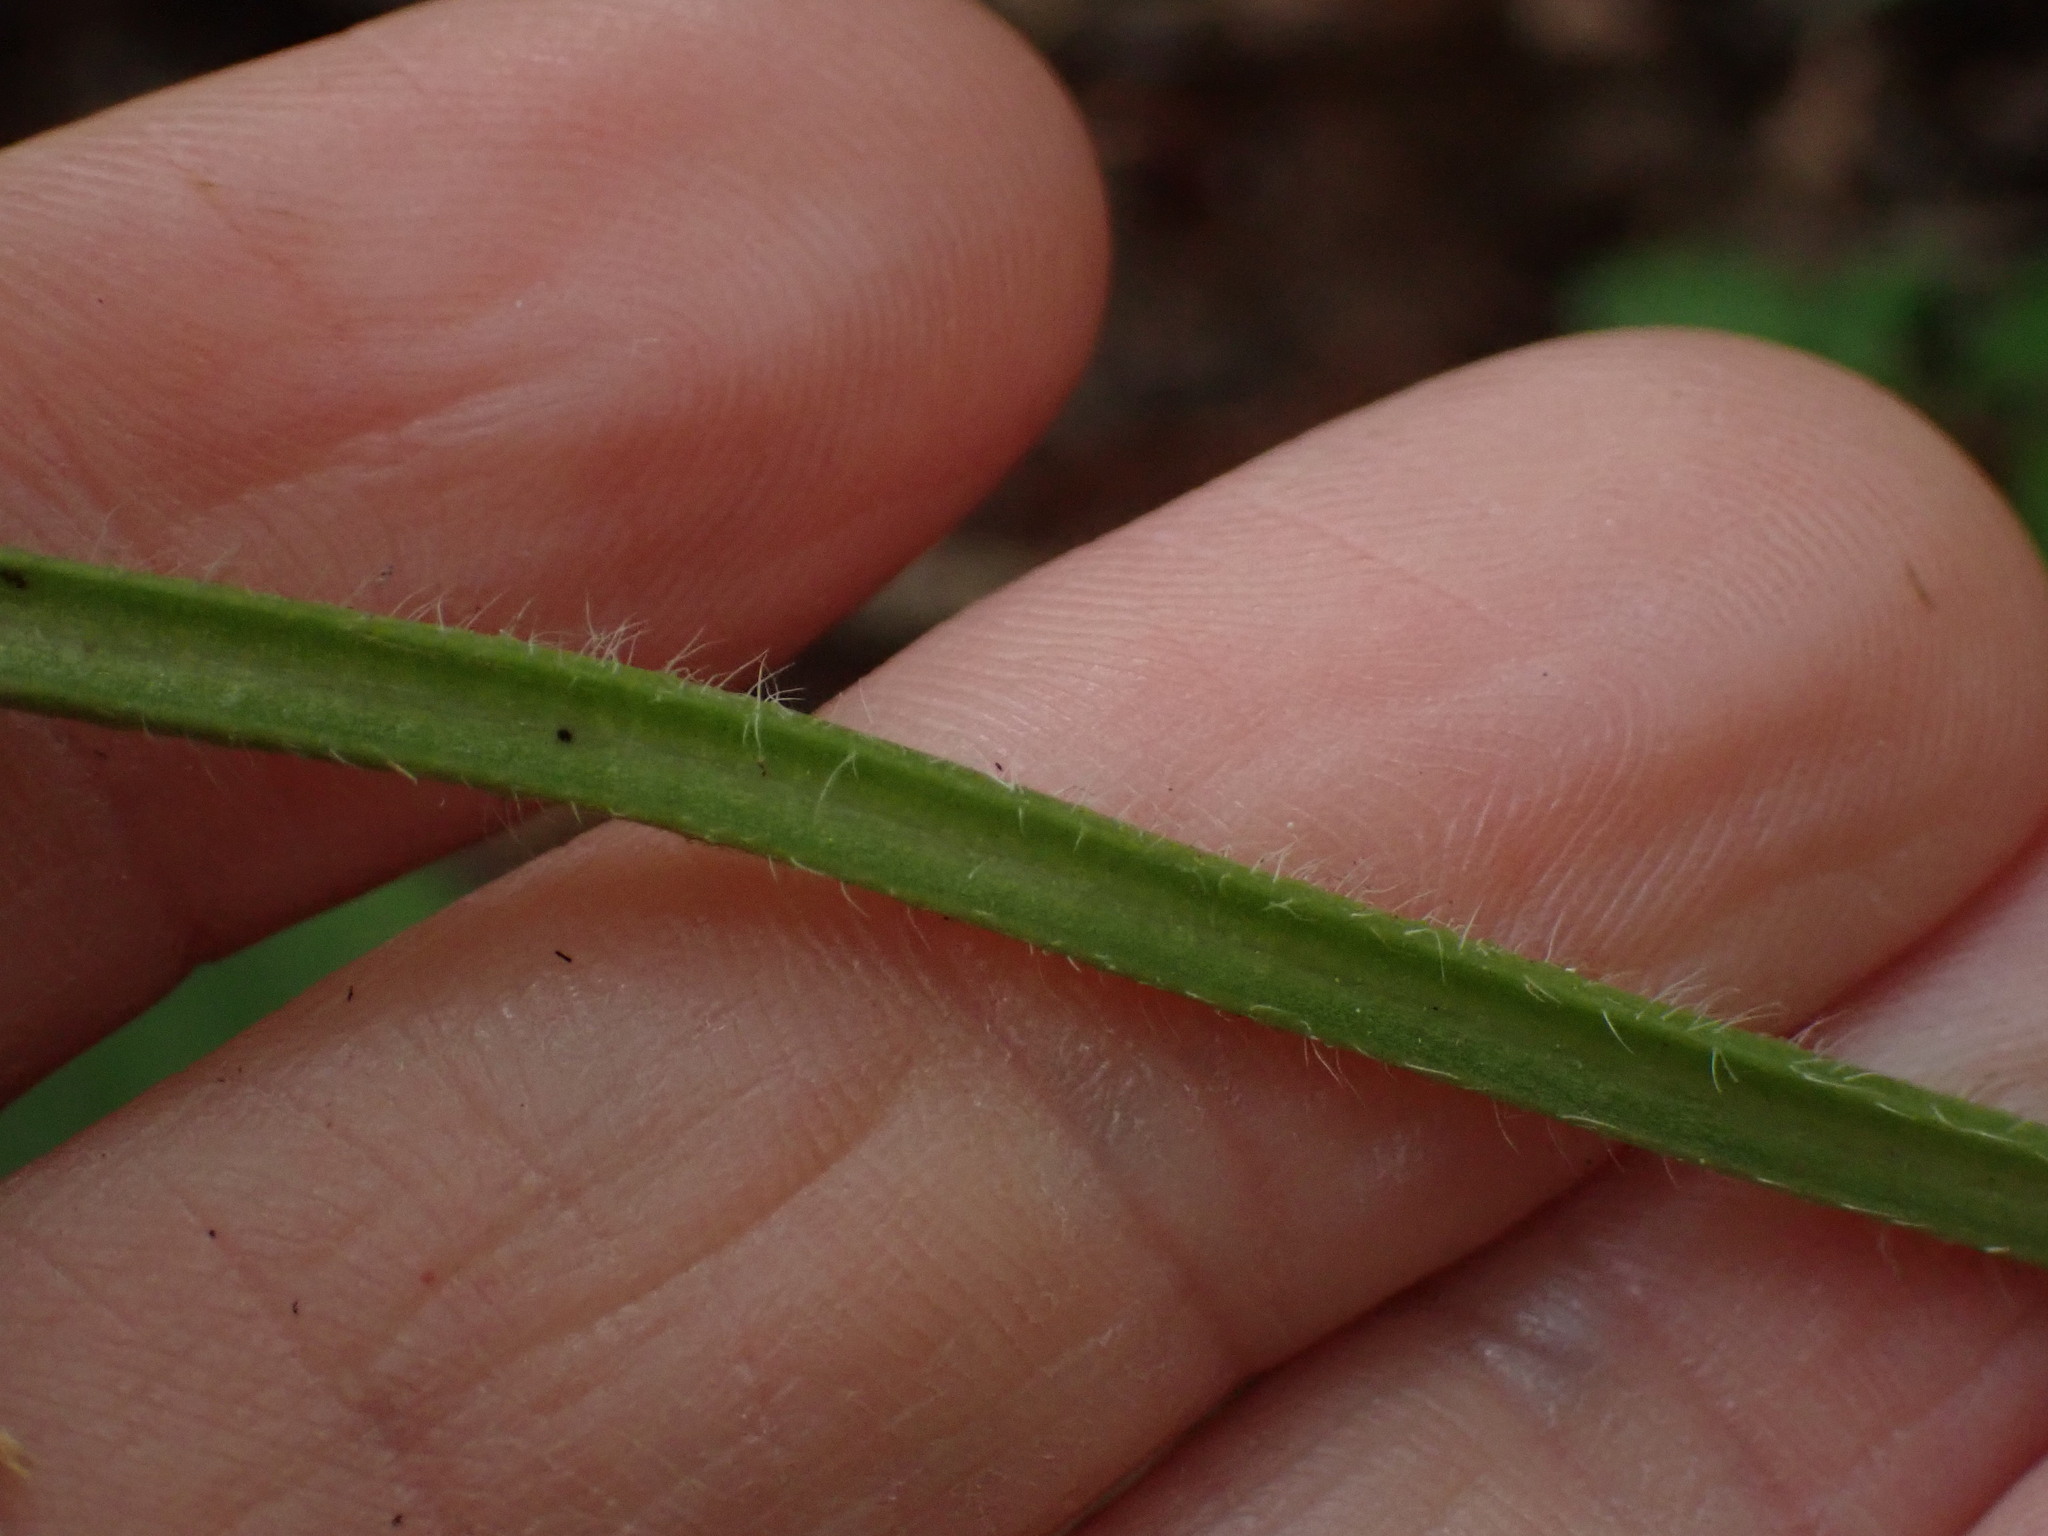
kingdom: Plantae
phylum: Tracheophyta
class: Magnoliopsida
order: Boraginales
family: Boraginaceae
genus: Mertensia
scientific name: Mertensia paniculata
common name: Panicled bluebells
